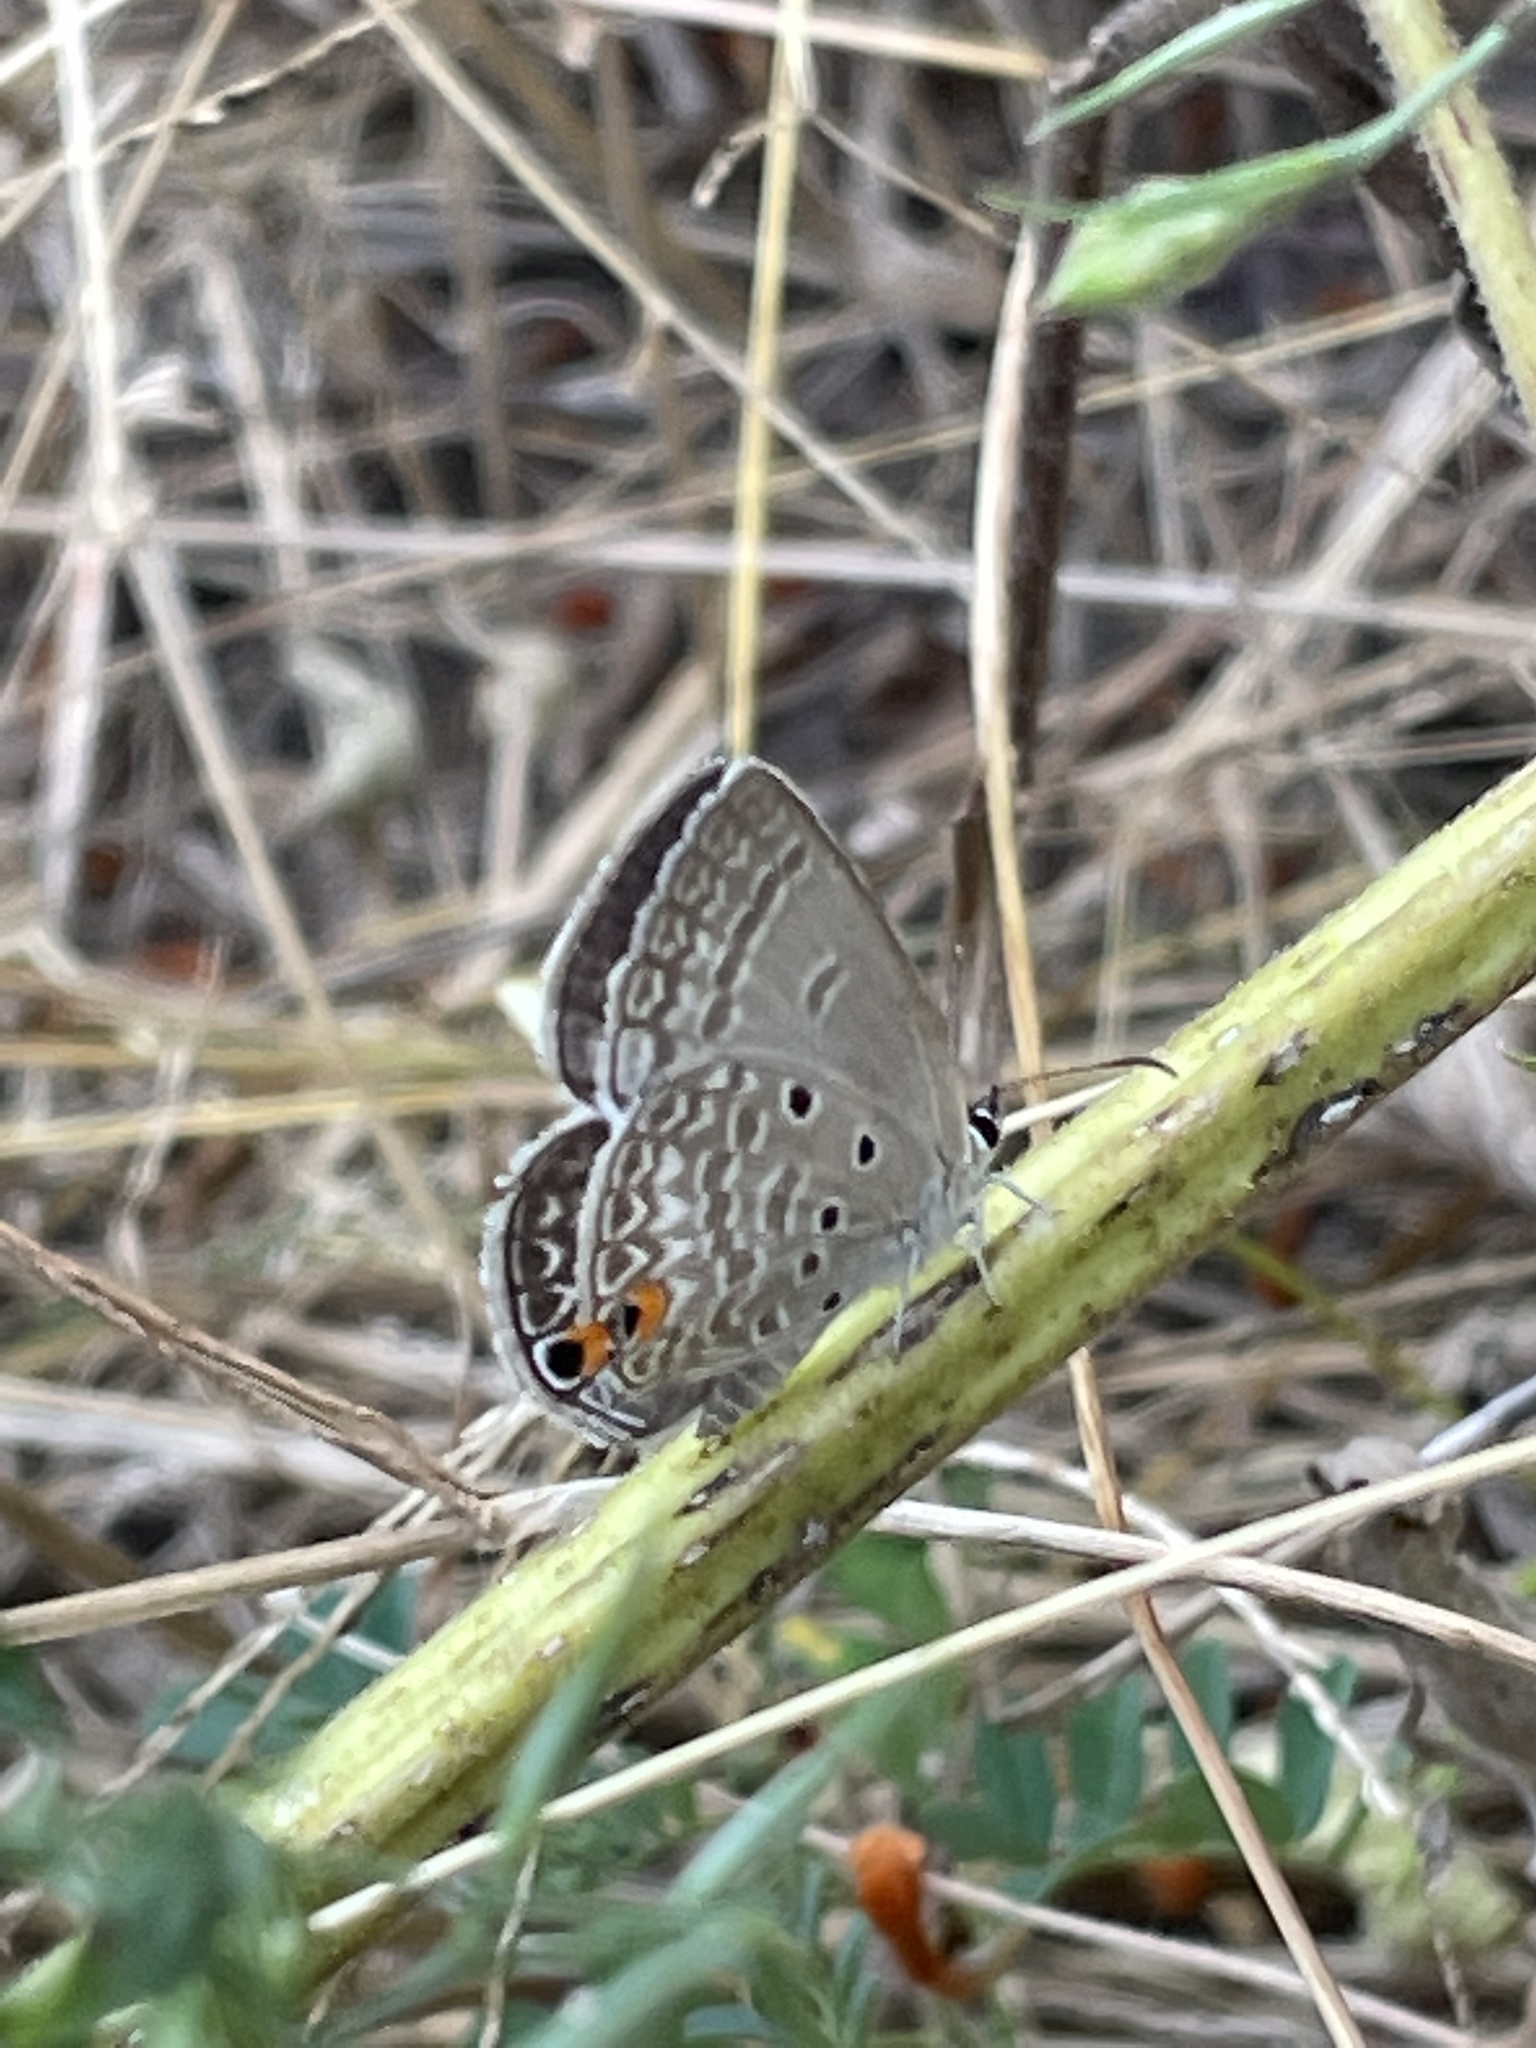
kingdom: Animalia
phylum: Arthropoda
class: Insecta
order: Lepidoptera
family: Lycaenidae
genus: Euchrysops
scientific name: Euchrysops malathana
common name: Common smoky blue
